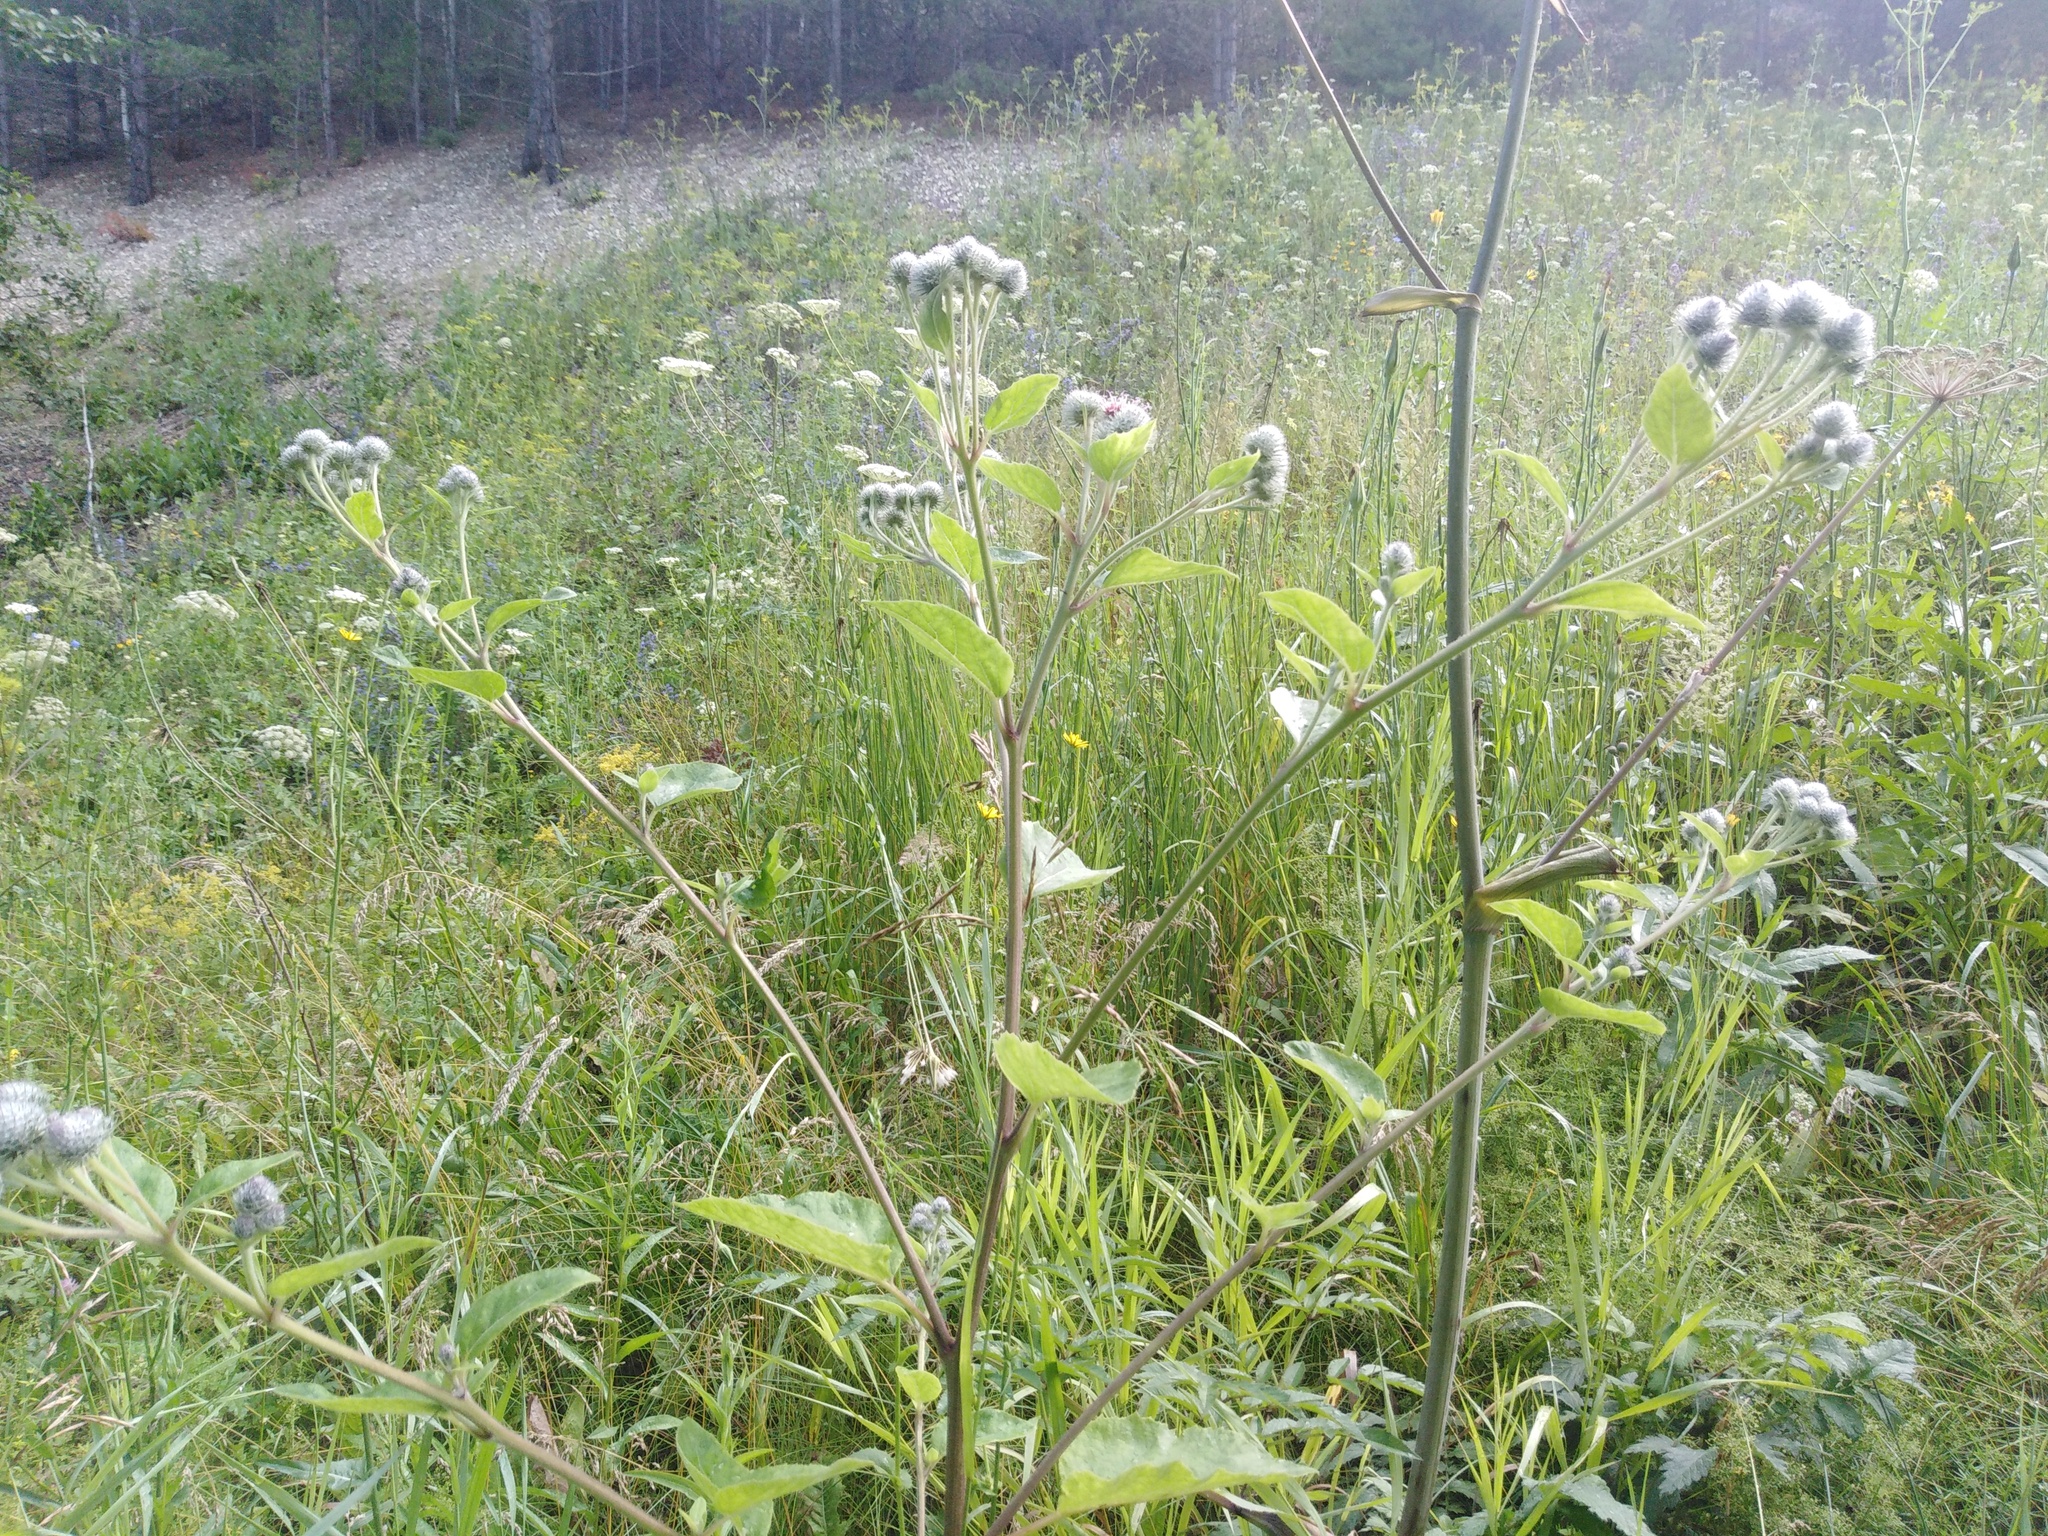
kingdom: Plantae
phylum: Tracheophyta
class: Magnoliopsida
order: Asterales
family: Asteraceae
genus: Arctium
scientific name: Arctium tomentosum
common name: Woolly burdock
